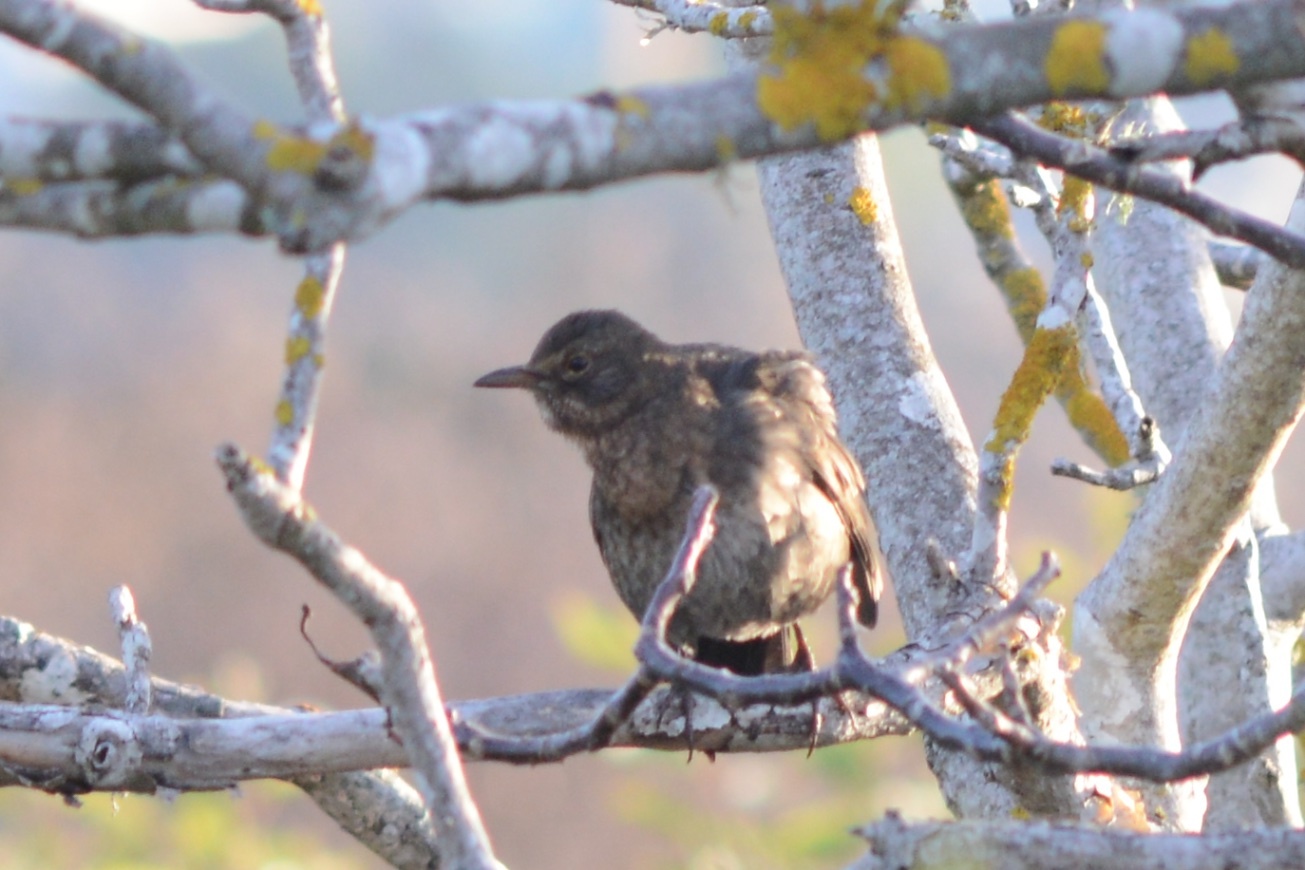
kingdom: Animalia
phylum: Chordata
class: Aves
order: Passeriformes
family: Turdidae
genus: Turdus
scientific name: Turdus merula
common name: Common blackbird
